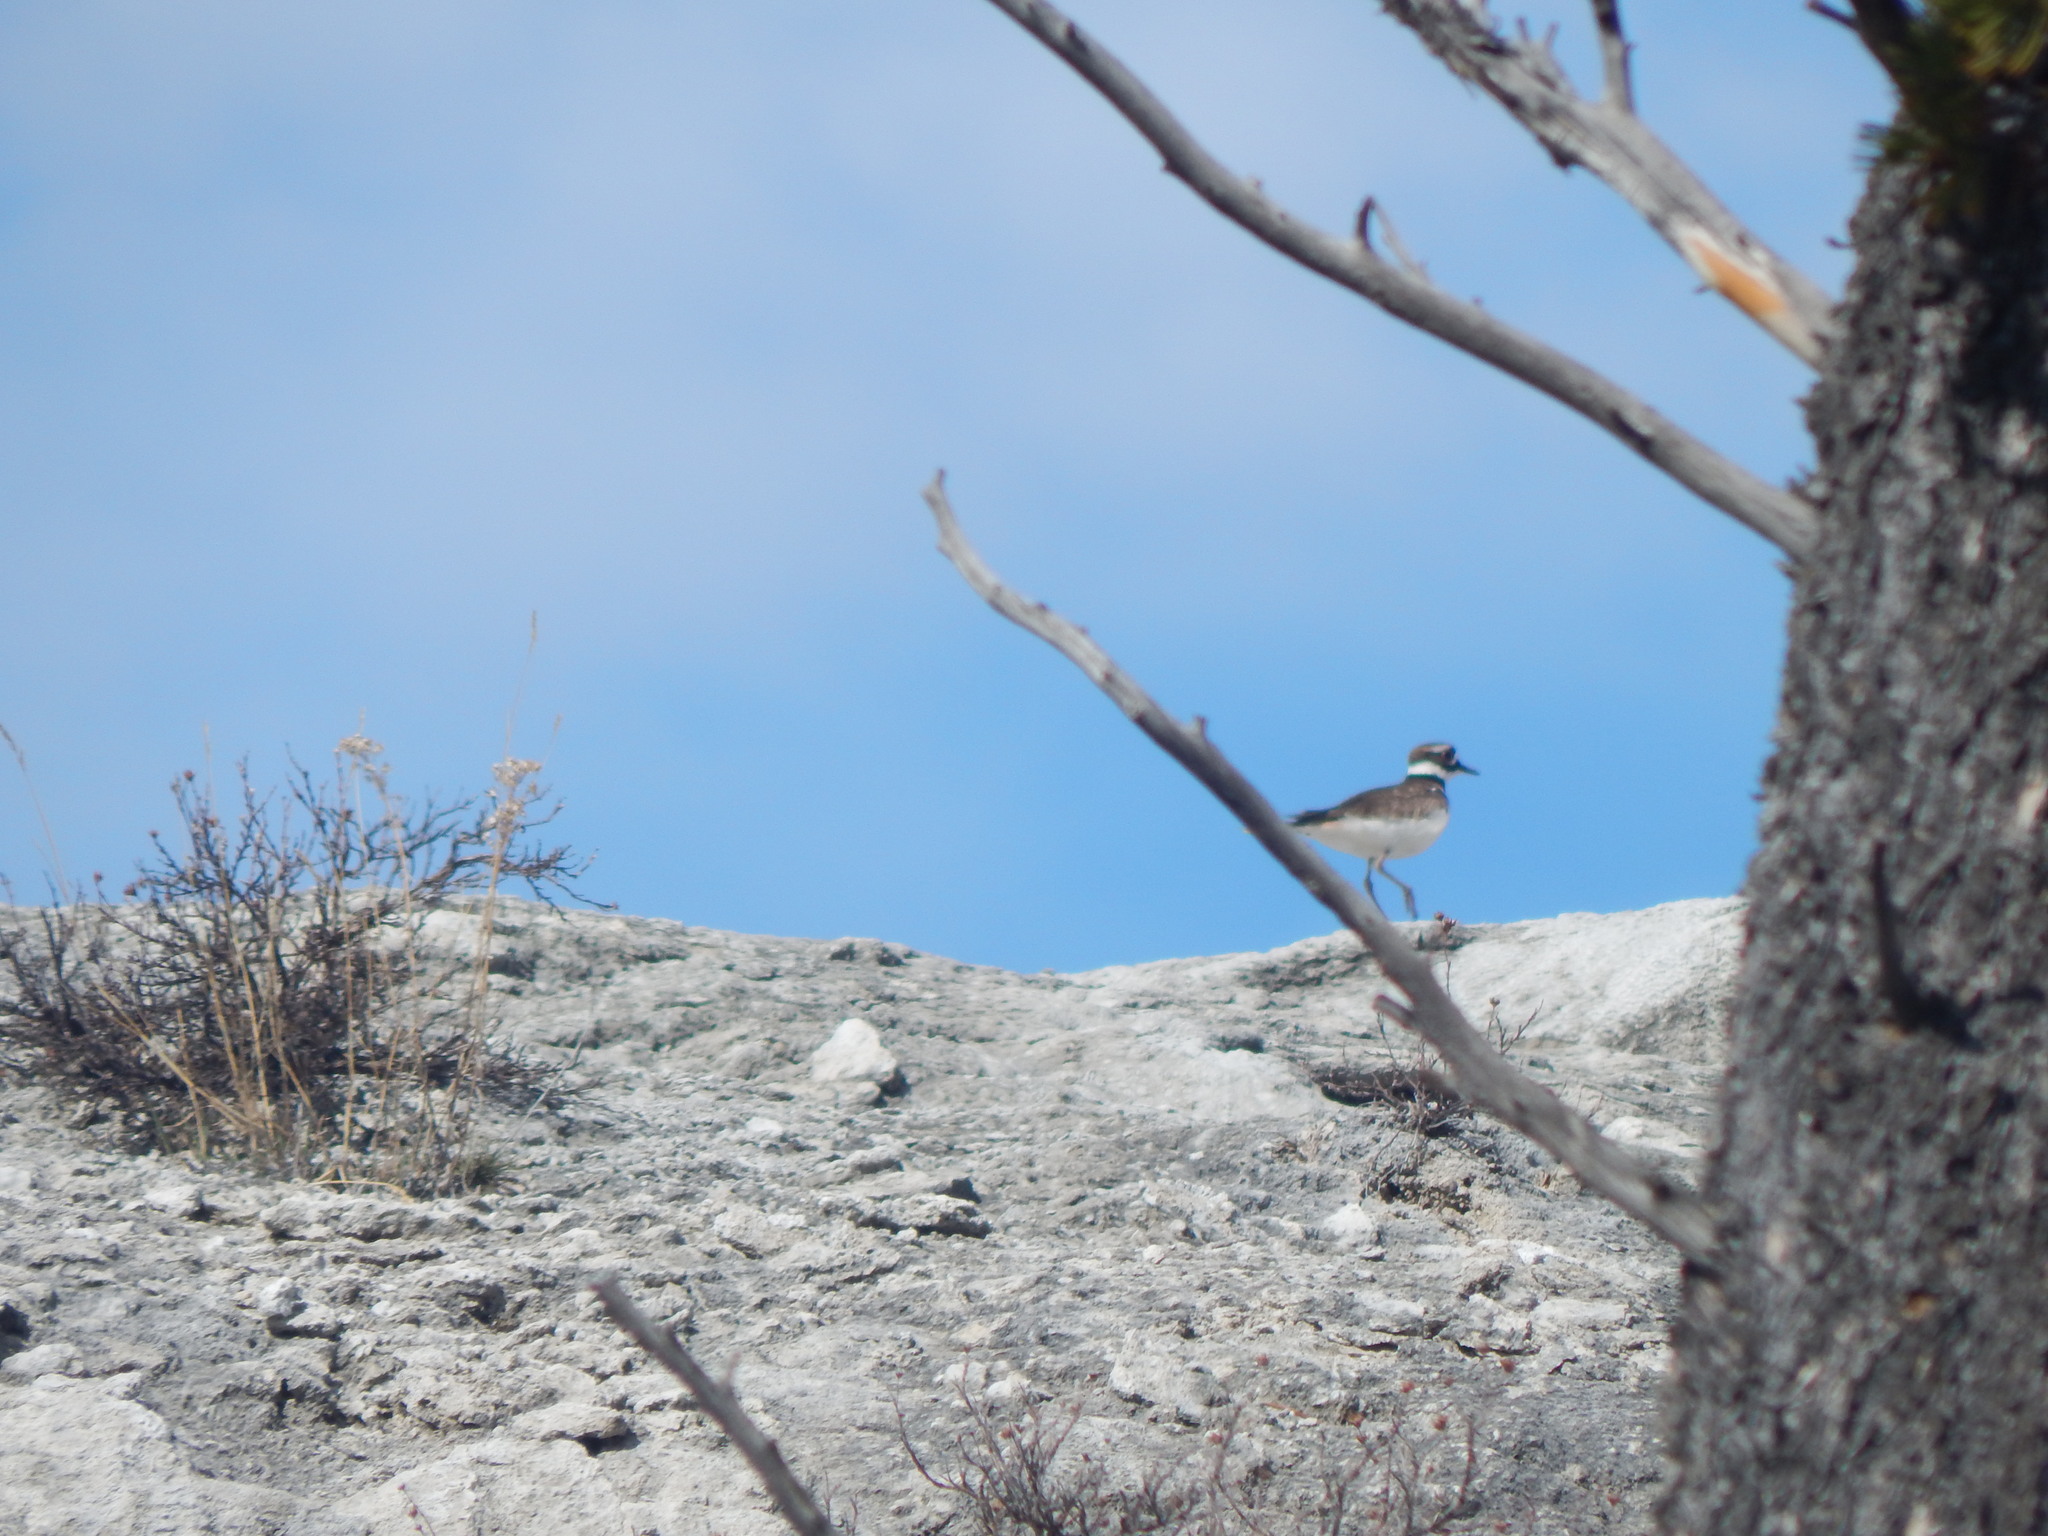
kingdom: Animalia
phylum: Chordata
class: Aves
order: Charadriiformes
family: Charadriidae
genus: Charadrius
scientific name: Charadrius vociferus
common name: Killdeer
